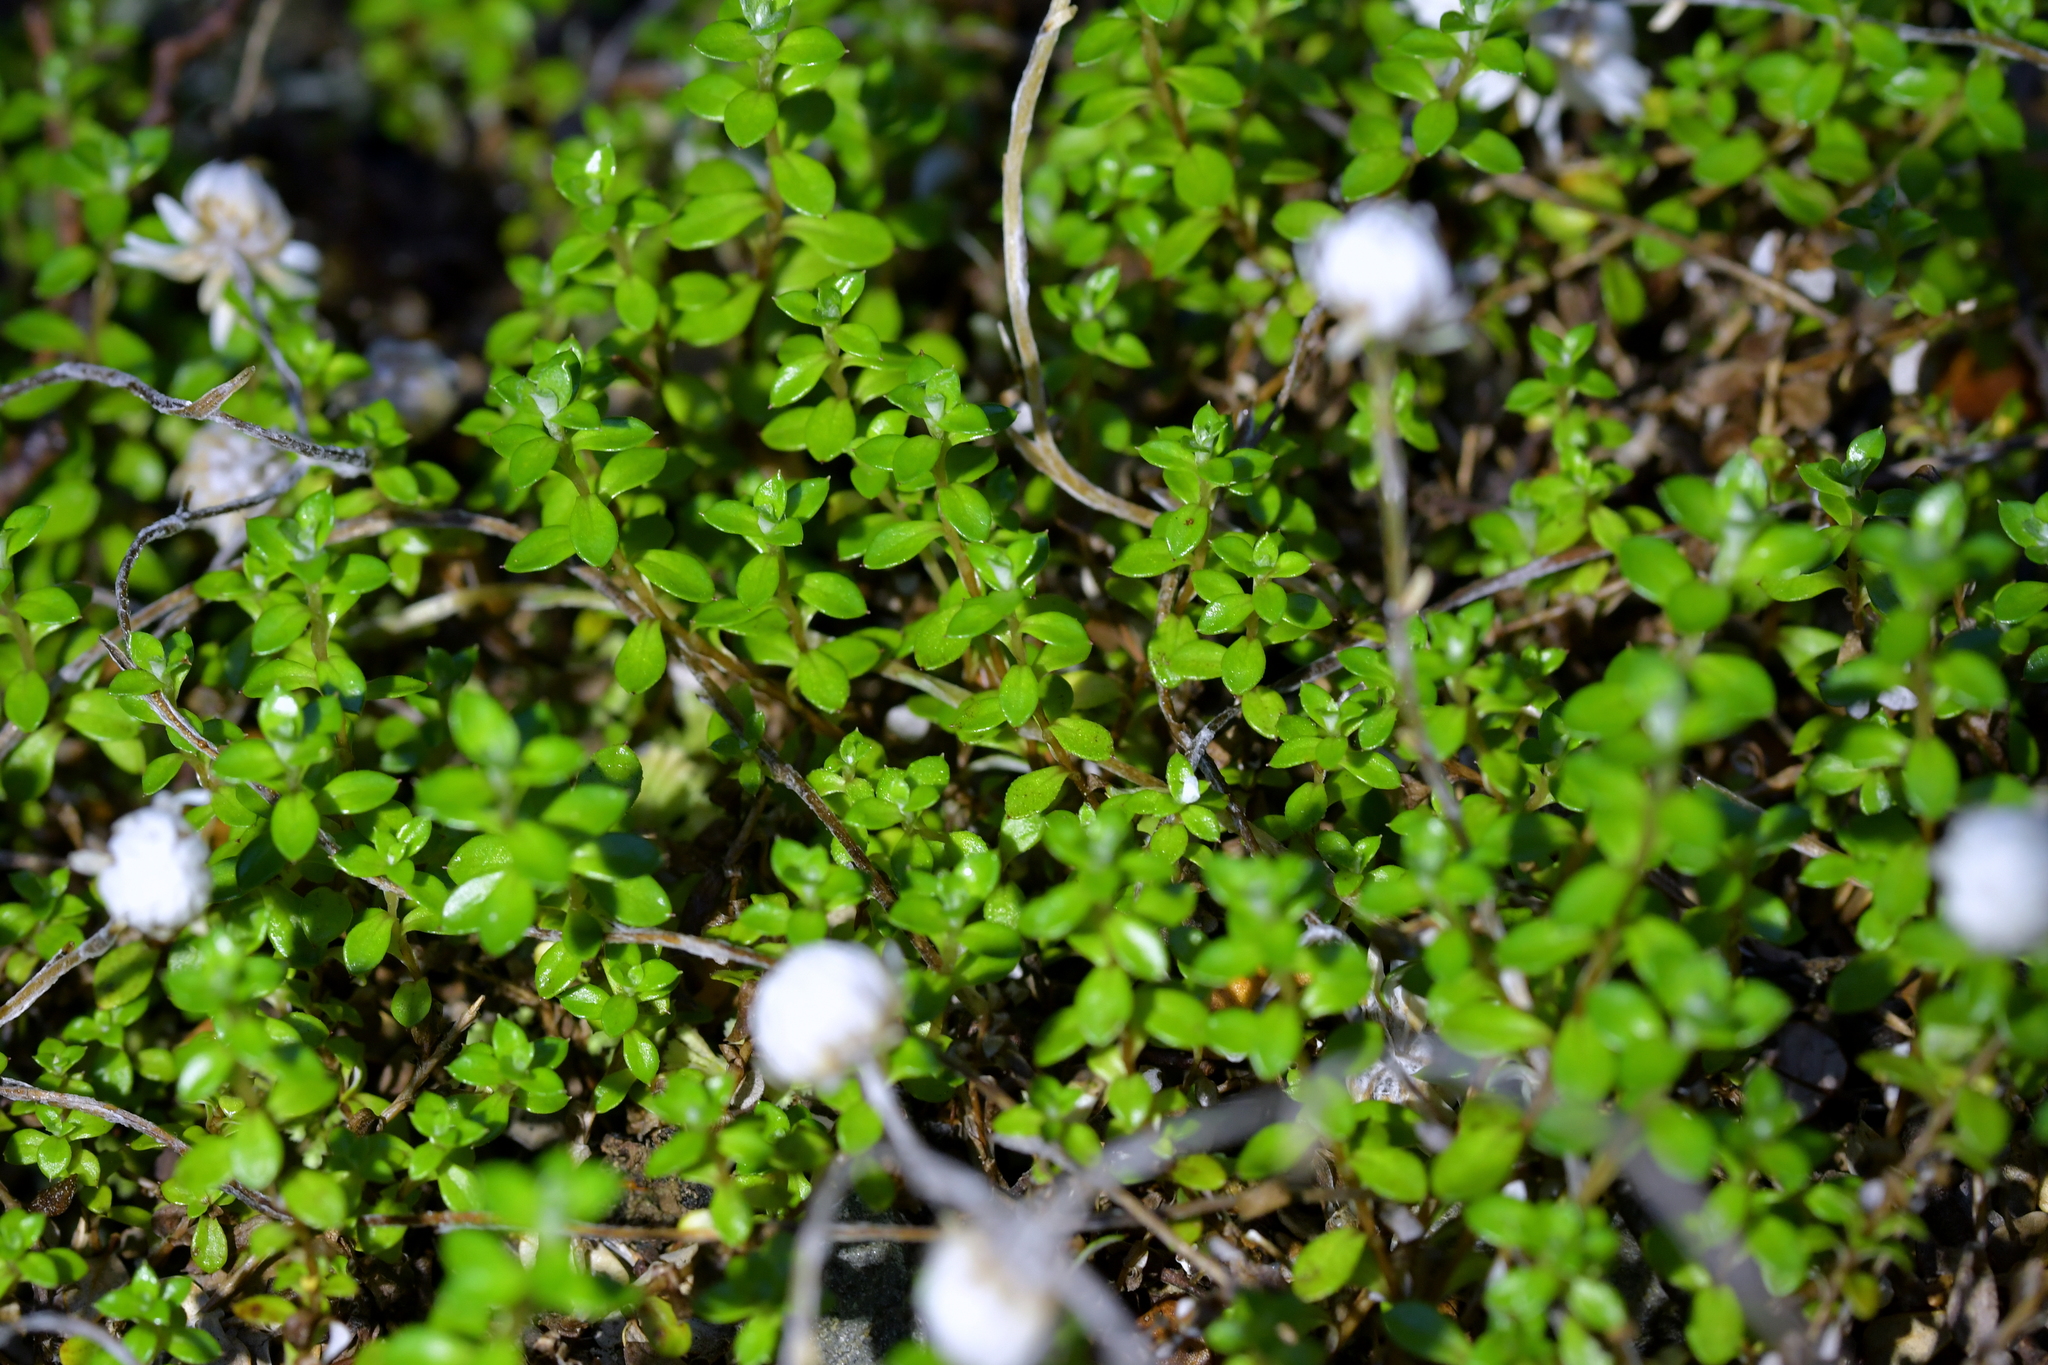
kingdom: Plantae
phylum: Tracheophyta
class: Magnoliopsida
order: Asterales
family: Asteraceae
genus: Anaphalioides
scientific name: Anaphalioides bellidioides
